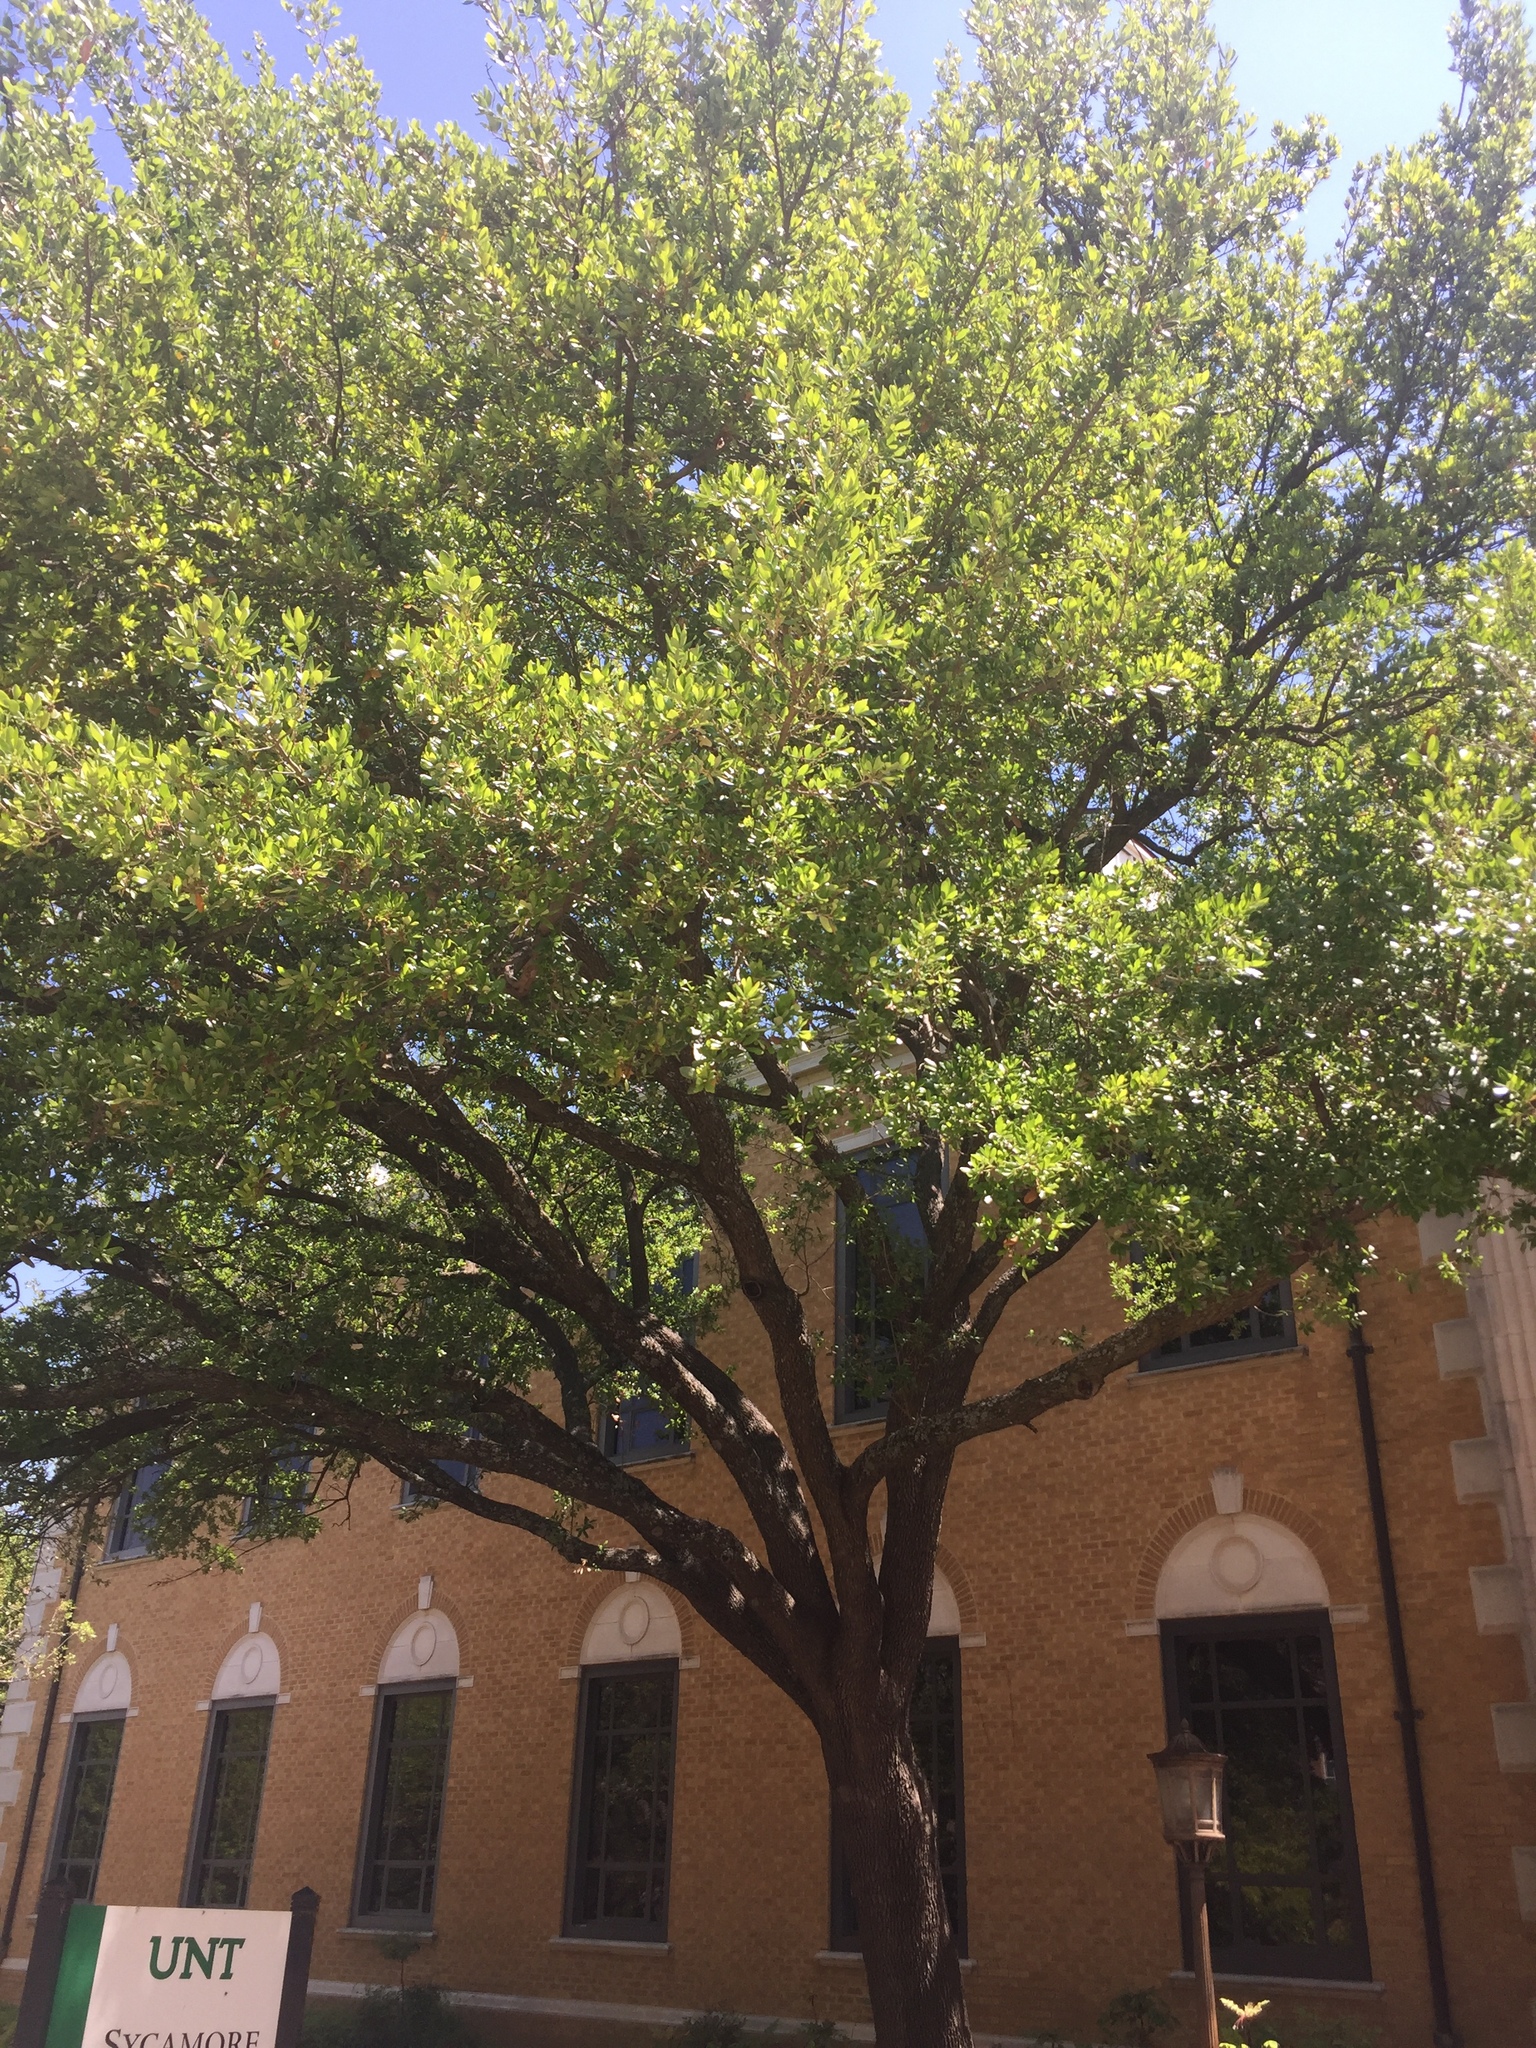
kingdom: Plantae
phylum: Tracheophyta
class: Magnoliopsida
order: Fagales
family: Fagaceae
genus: Quercus
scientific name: Quercus fusiformis
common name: Texas live oak
